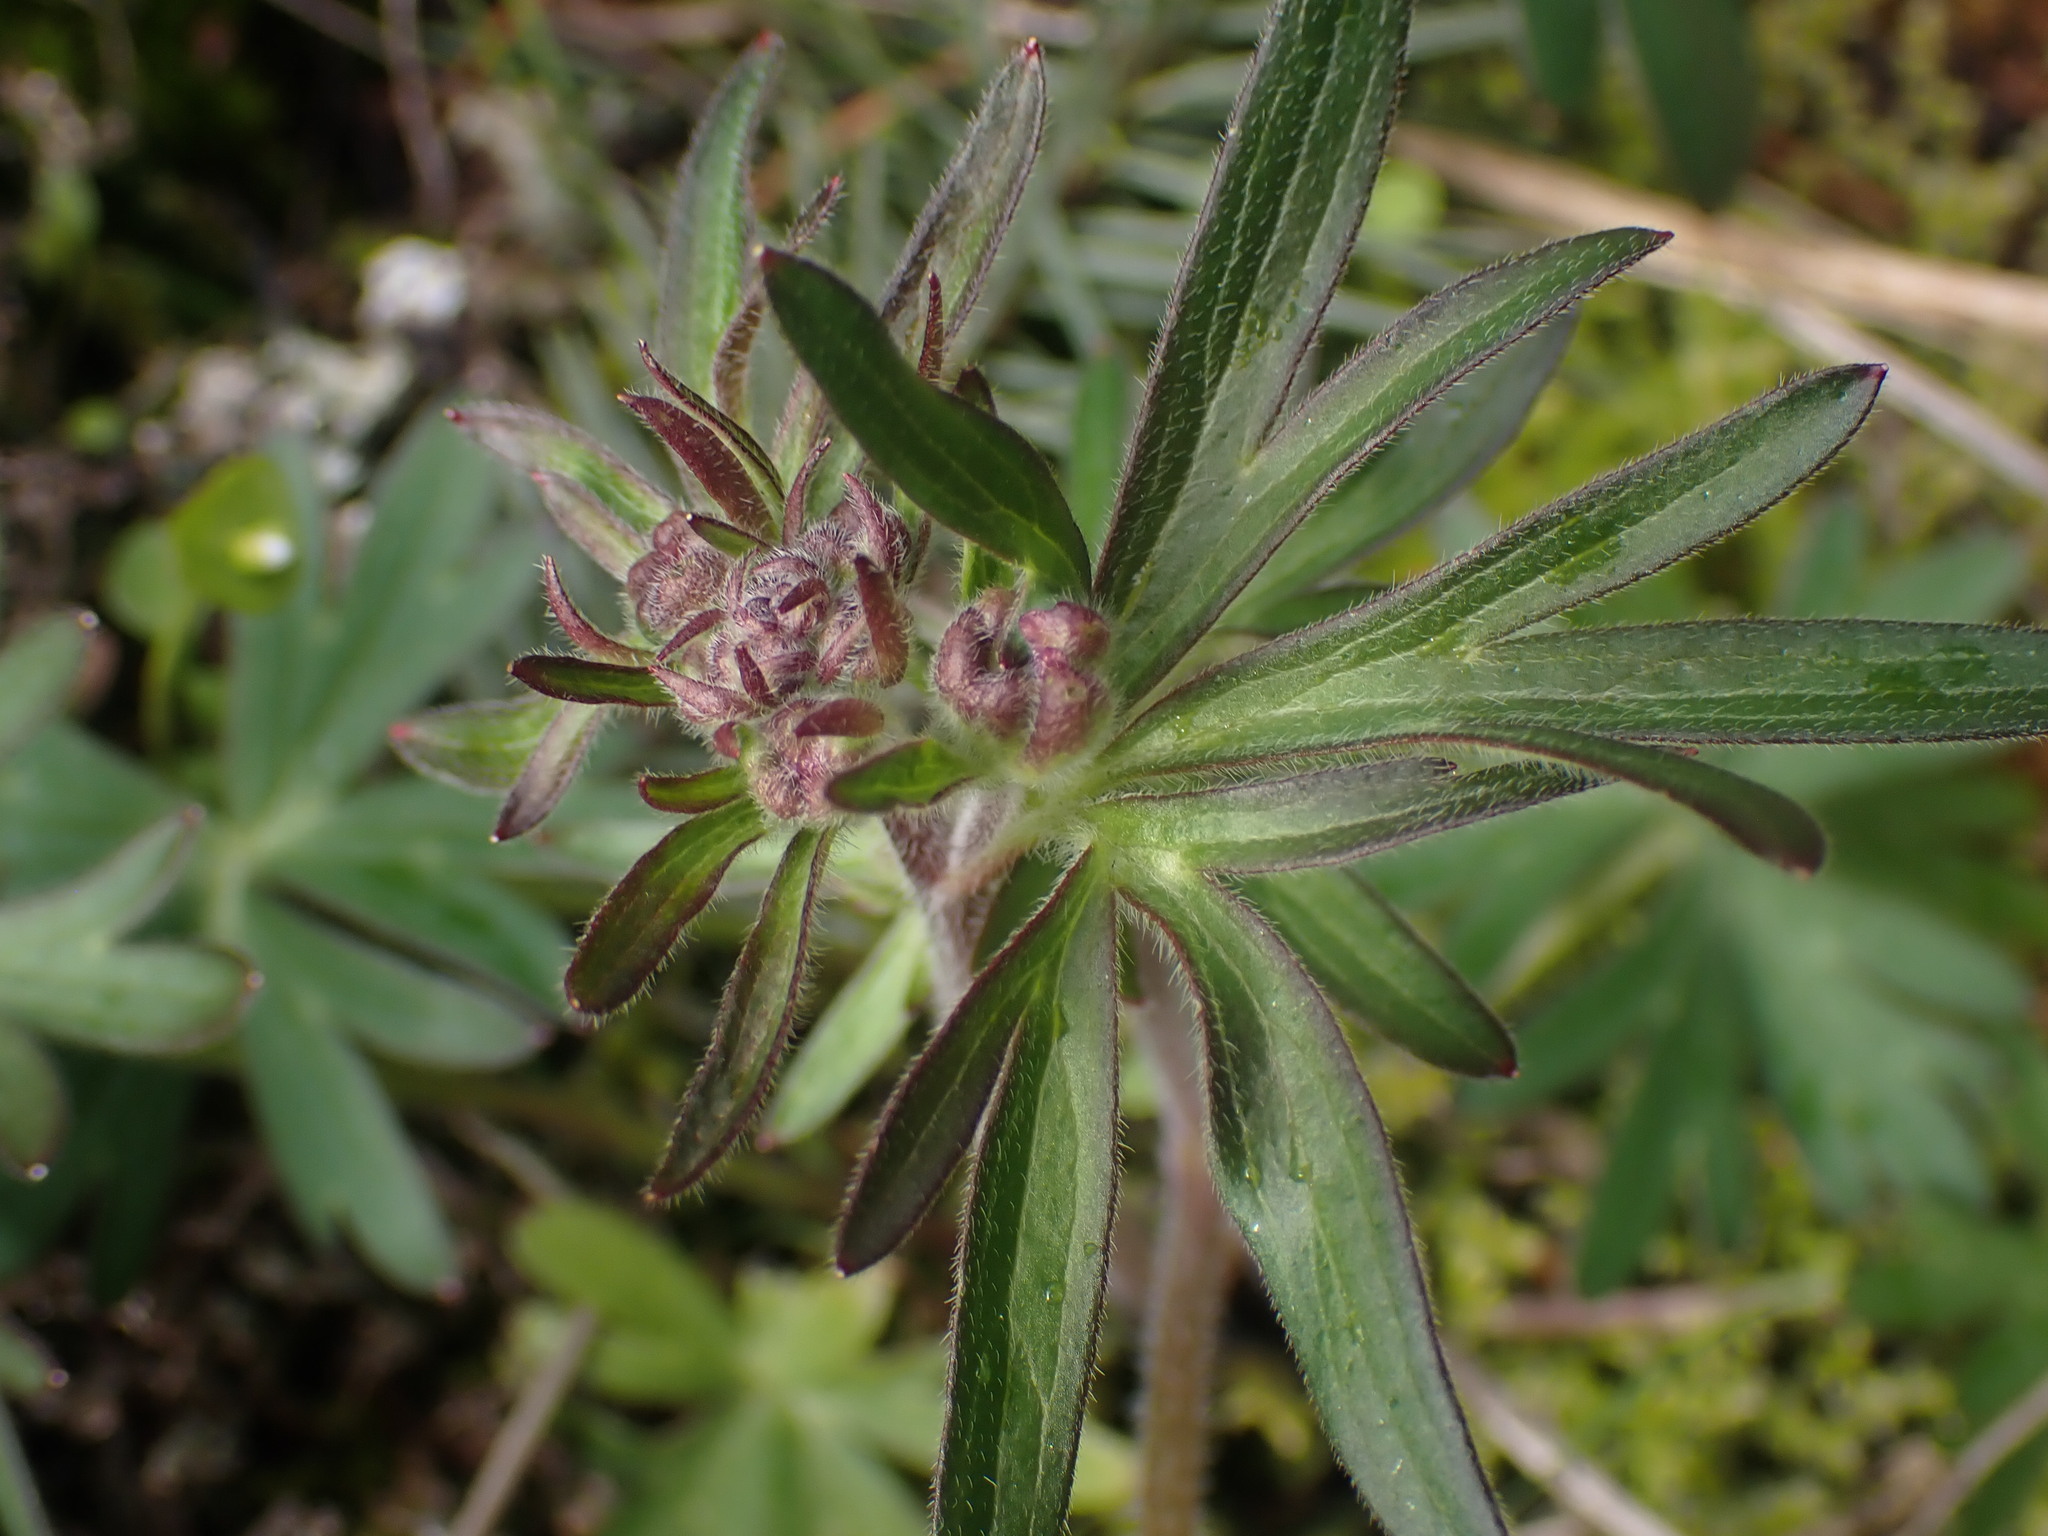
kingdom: Plantae
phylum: Tracheophyta
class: Magnoliopsida
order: Ranunculales
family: Ranunculaceae
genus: Delphinium
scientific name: Delphinium menziesii
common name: Menzies's larkspur
